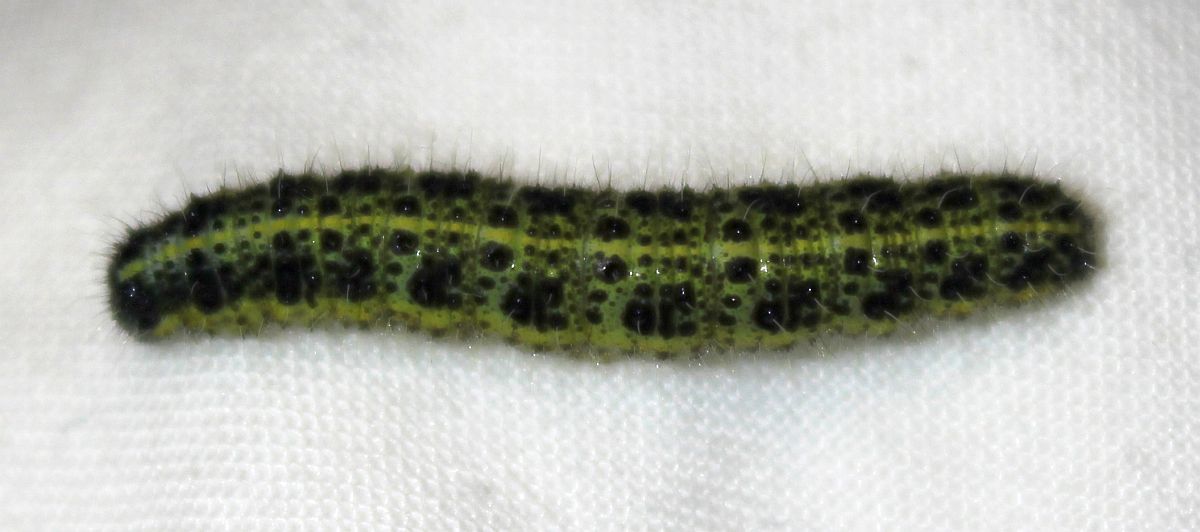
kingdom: Animalia
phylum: Arthropoda
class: Insecta
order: Lepidoptera
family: Pieridae
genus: Pieris
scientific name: Pieris brassicae
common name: Large white
